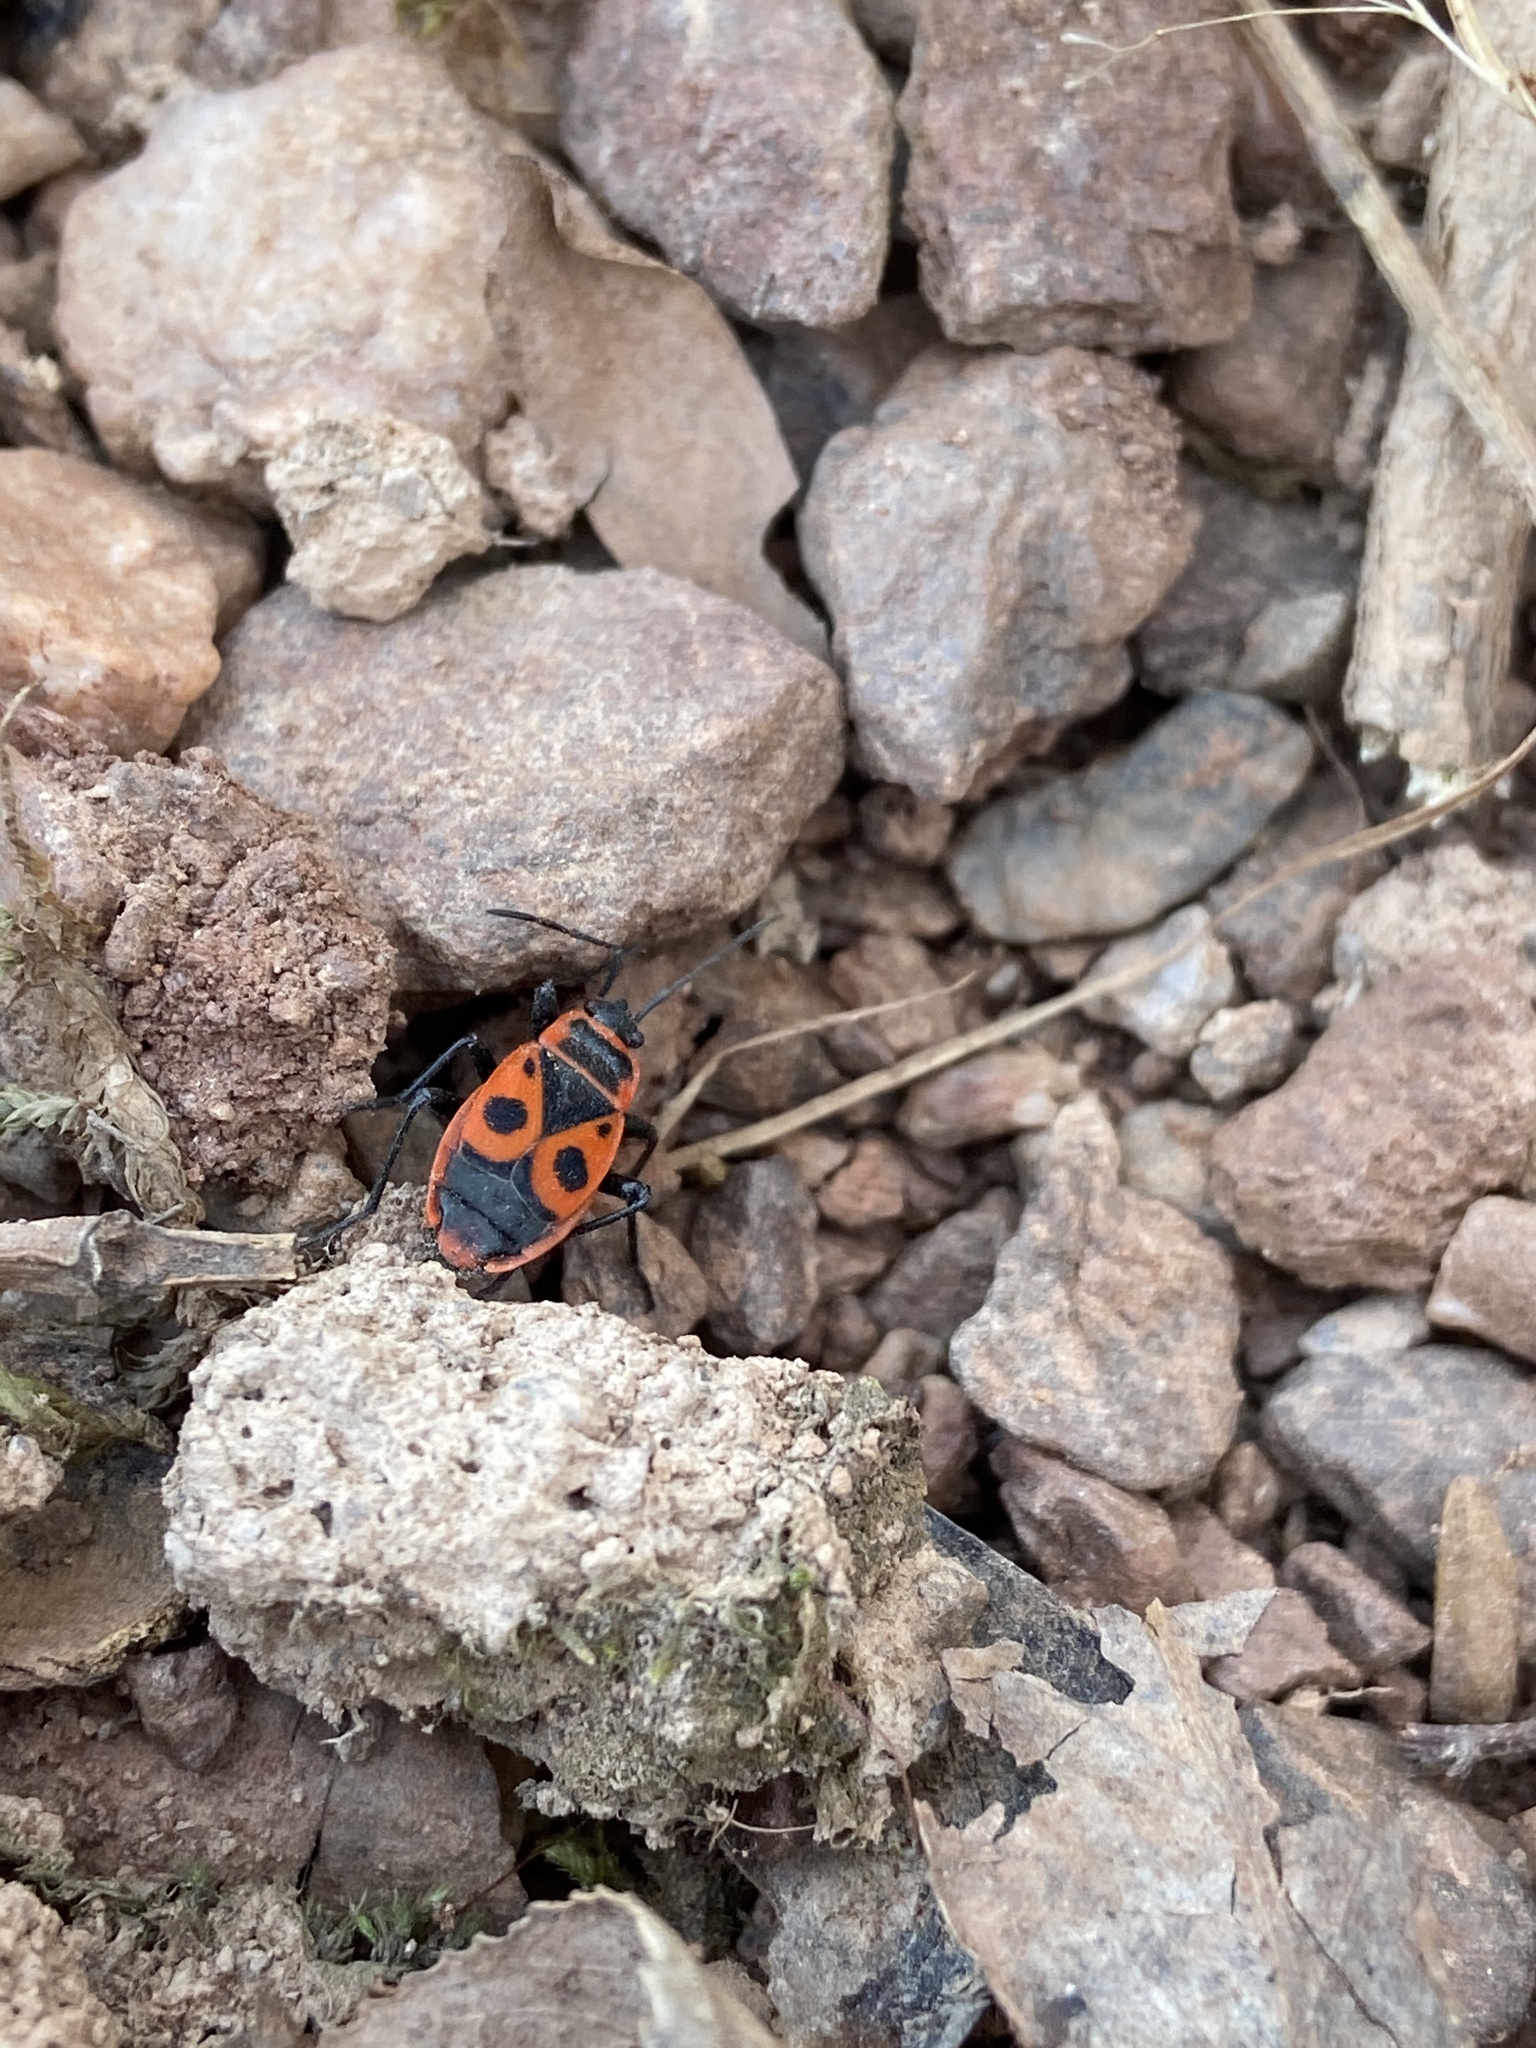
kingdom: Animalia
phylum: Arthropoda
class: Insecta
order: Hemiptera
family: Pyrrhocoridae
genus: Pyrrhocoris
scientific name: Pyrrhocoris apterus
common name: Firebug
